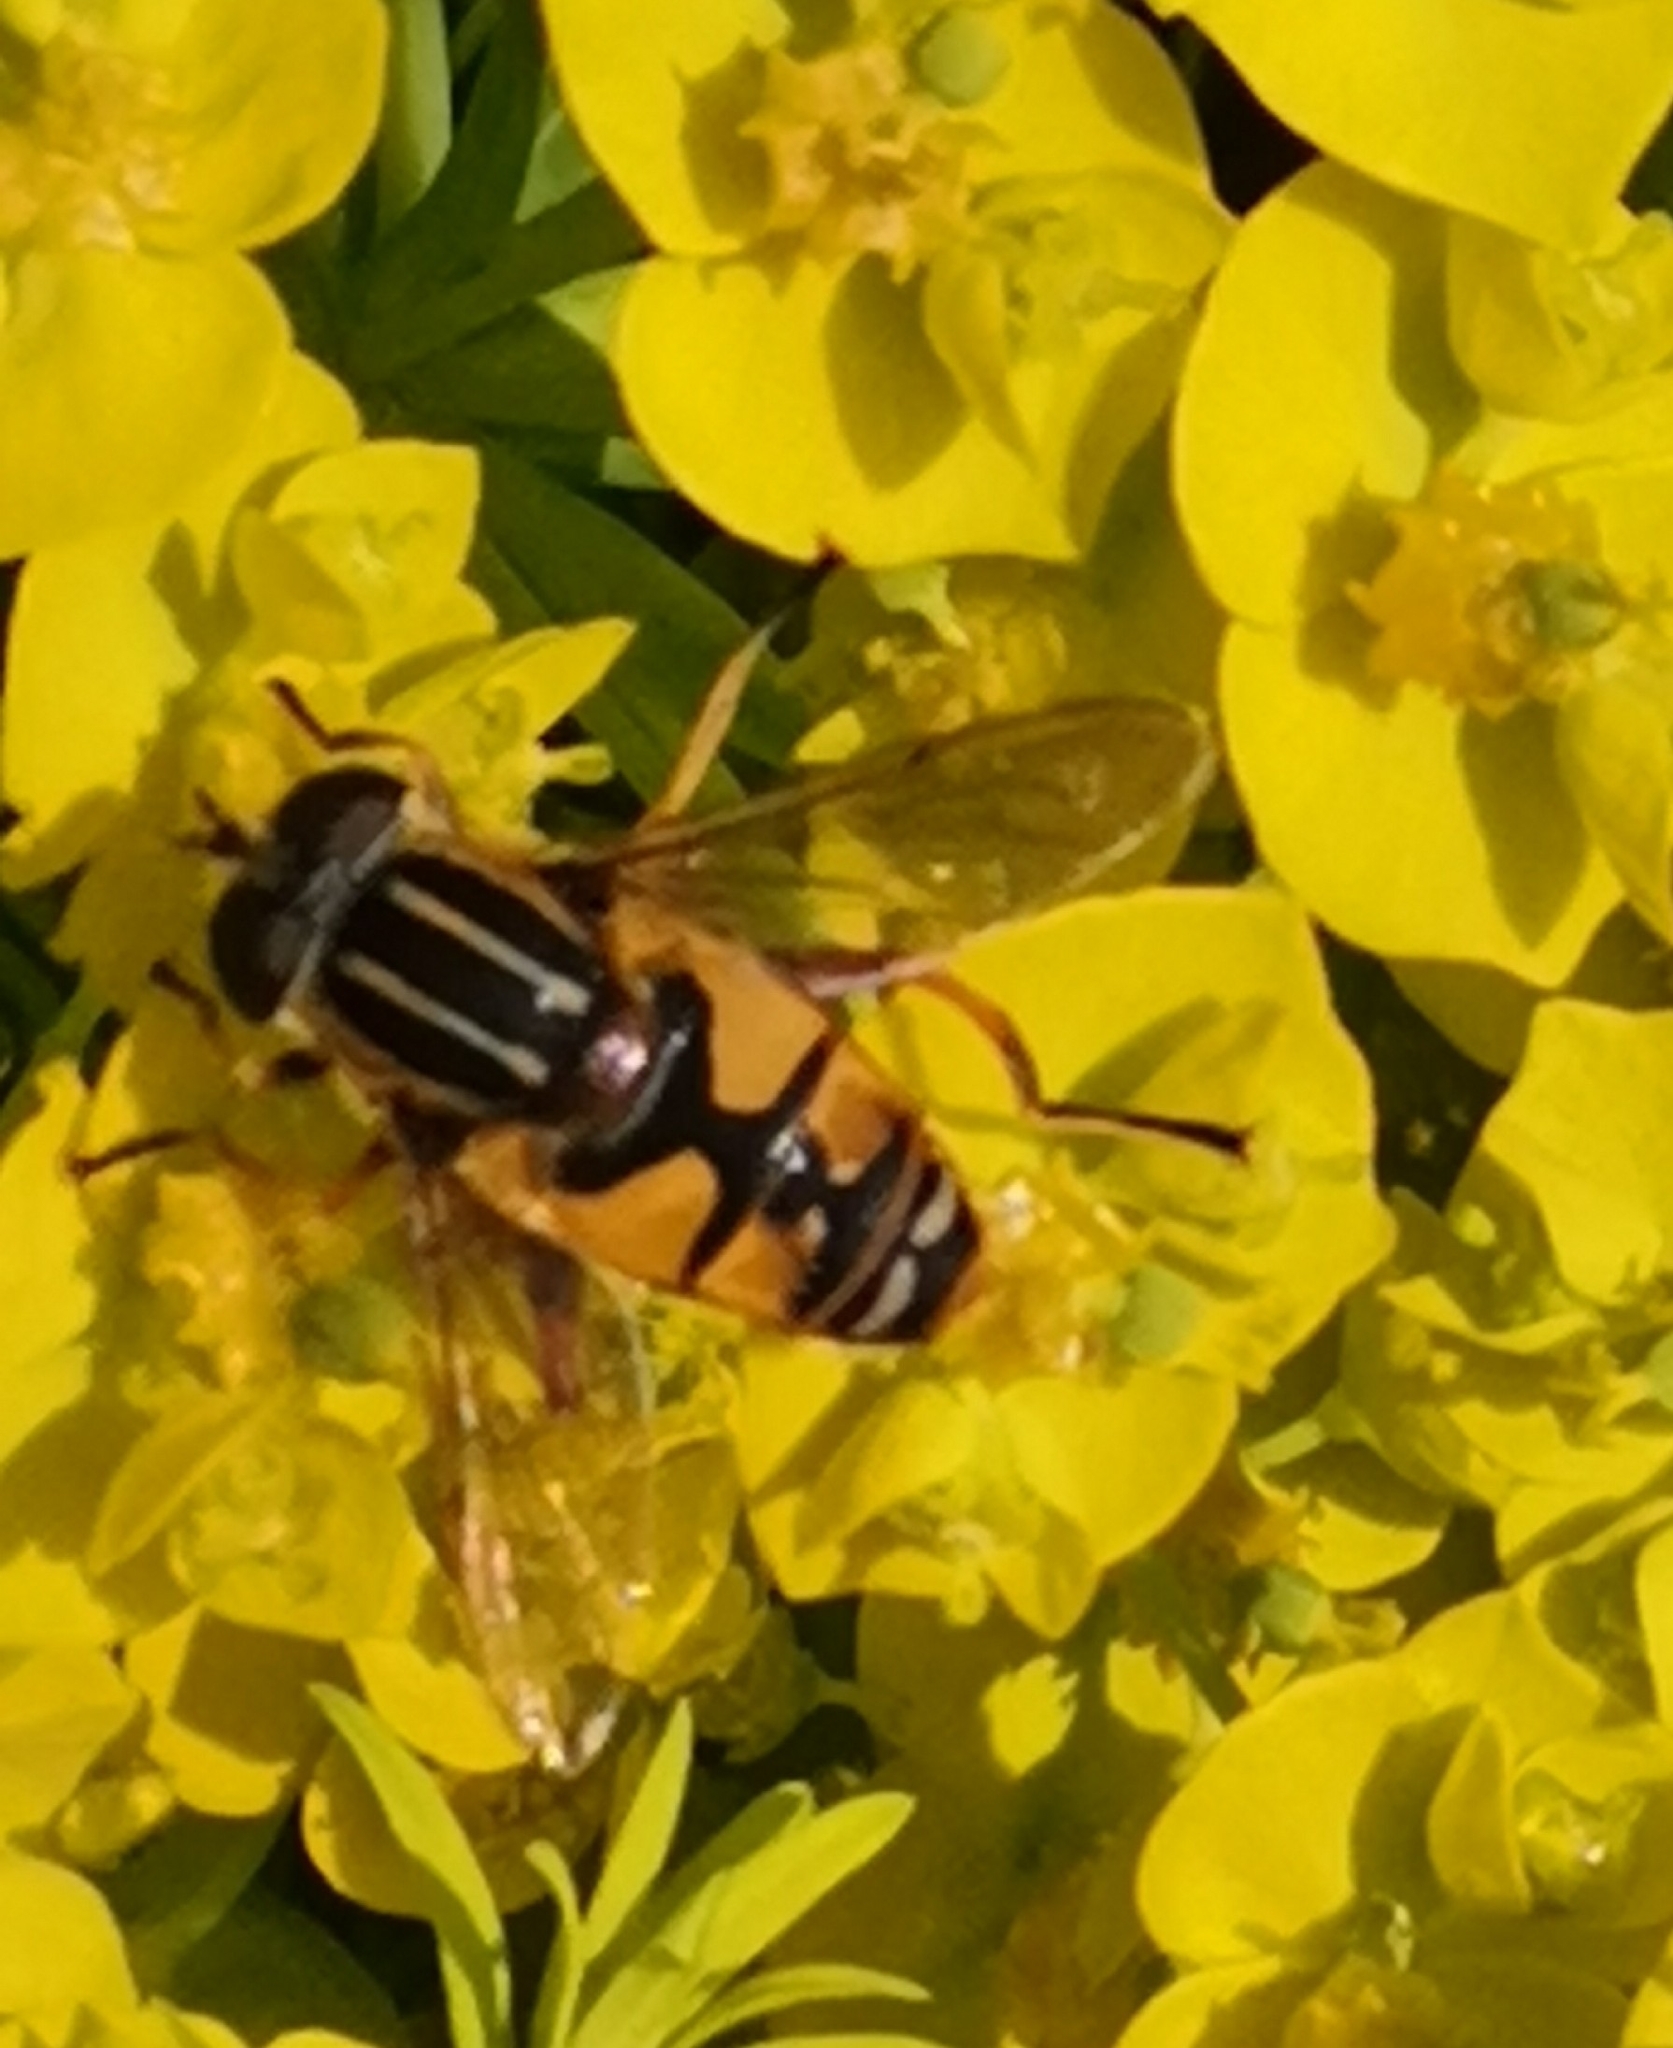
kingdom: Animalia
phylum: Arthropoda
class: Insecta
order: Diptera
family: Syrphidae
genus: Helophilus
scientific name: Helophilus pendulus
